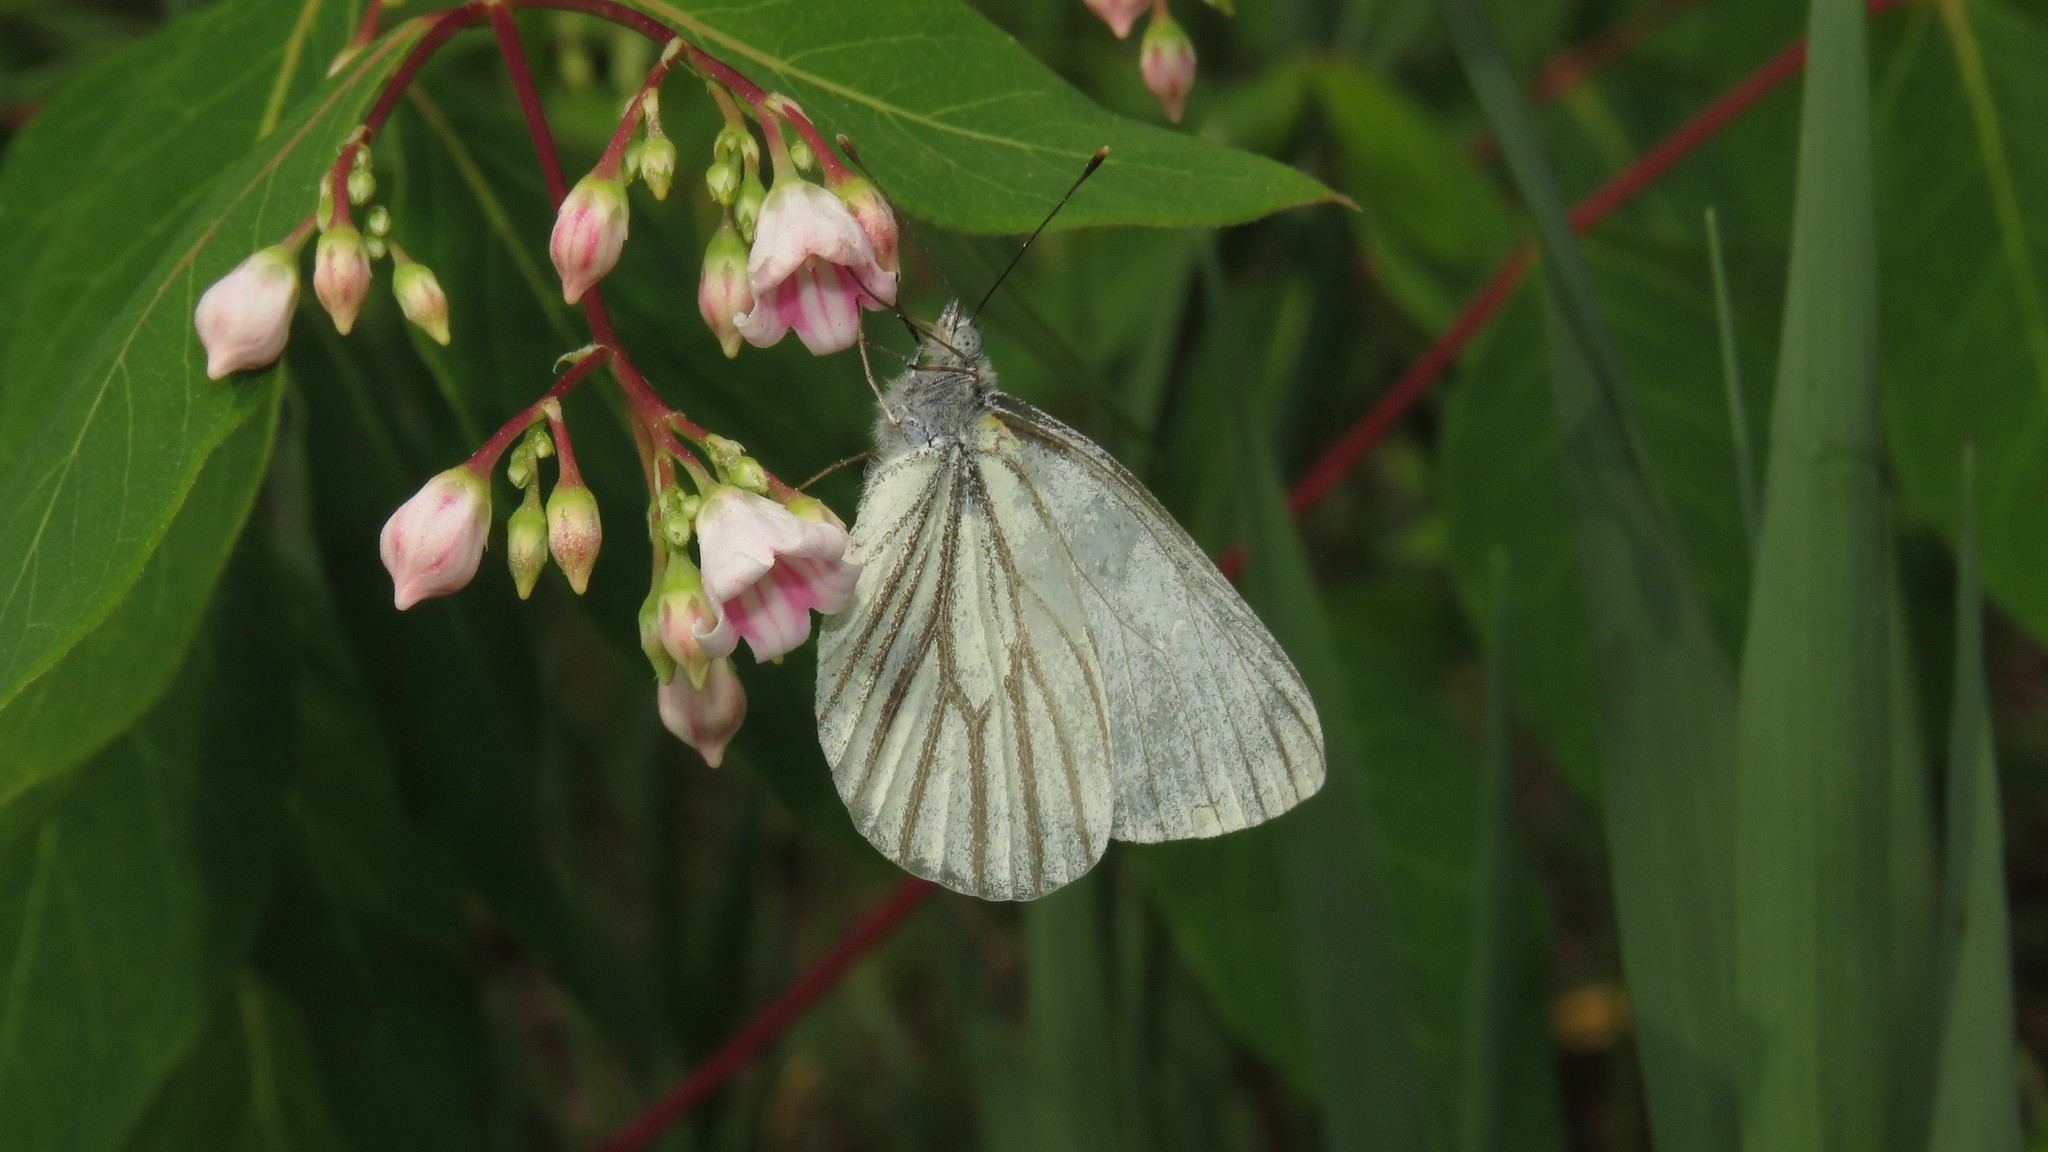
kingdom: Animalia
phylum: Arthropoda
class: Insecta
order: Lepidoptera
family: Pieridae
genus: Pieris
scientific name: Pieris oleracea
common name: Mustard white
